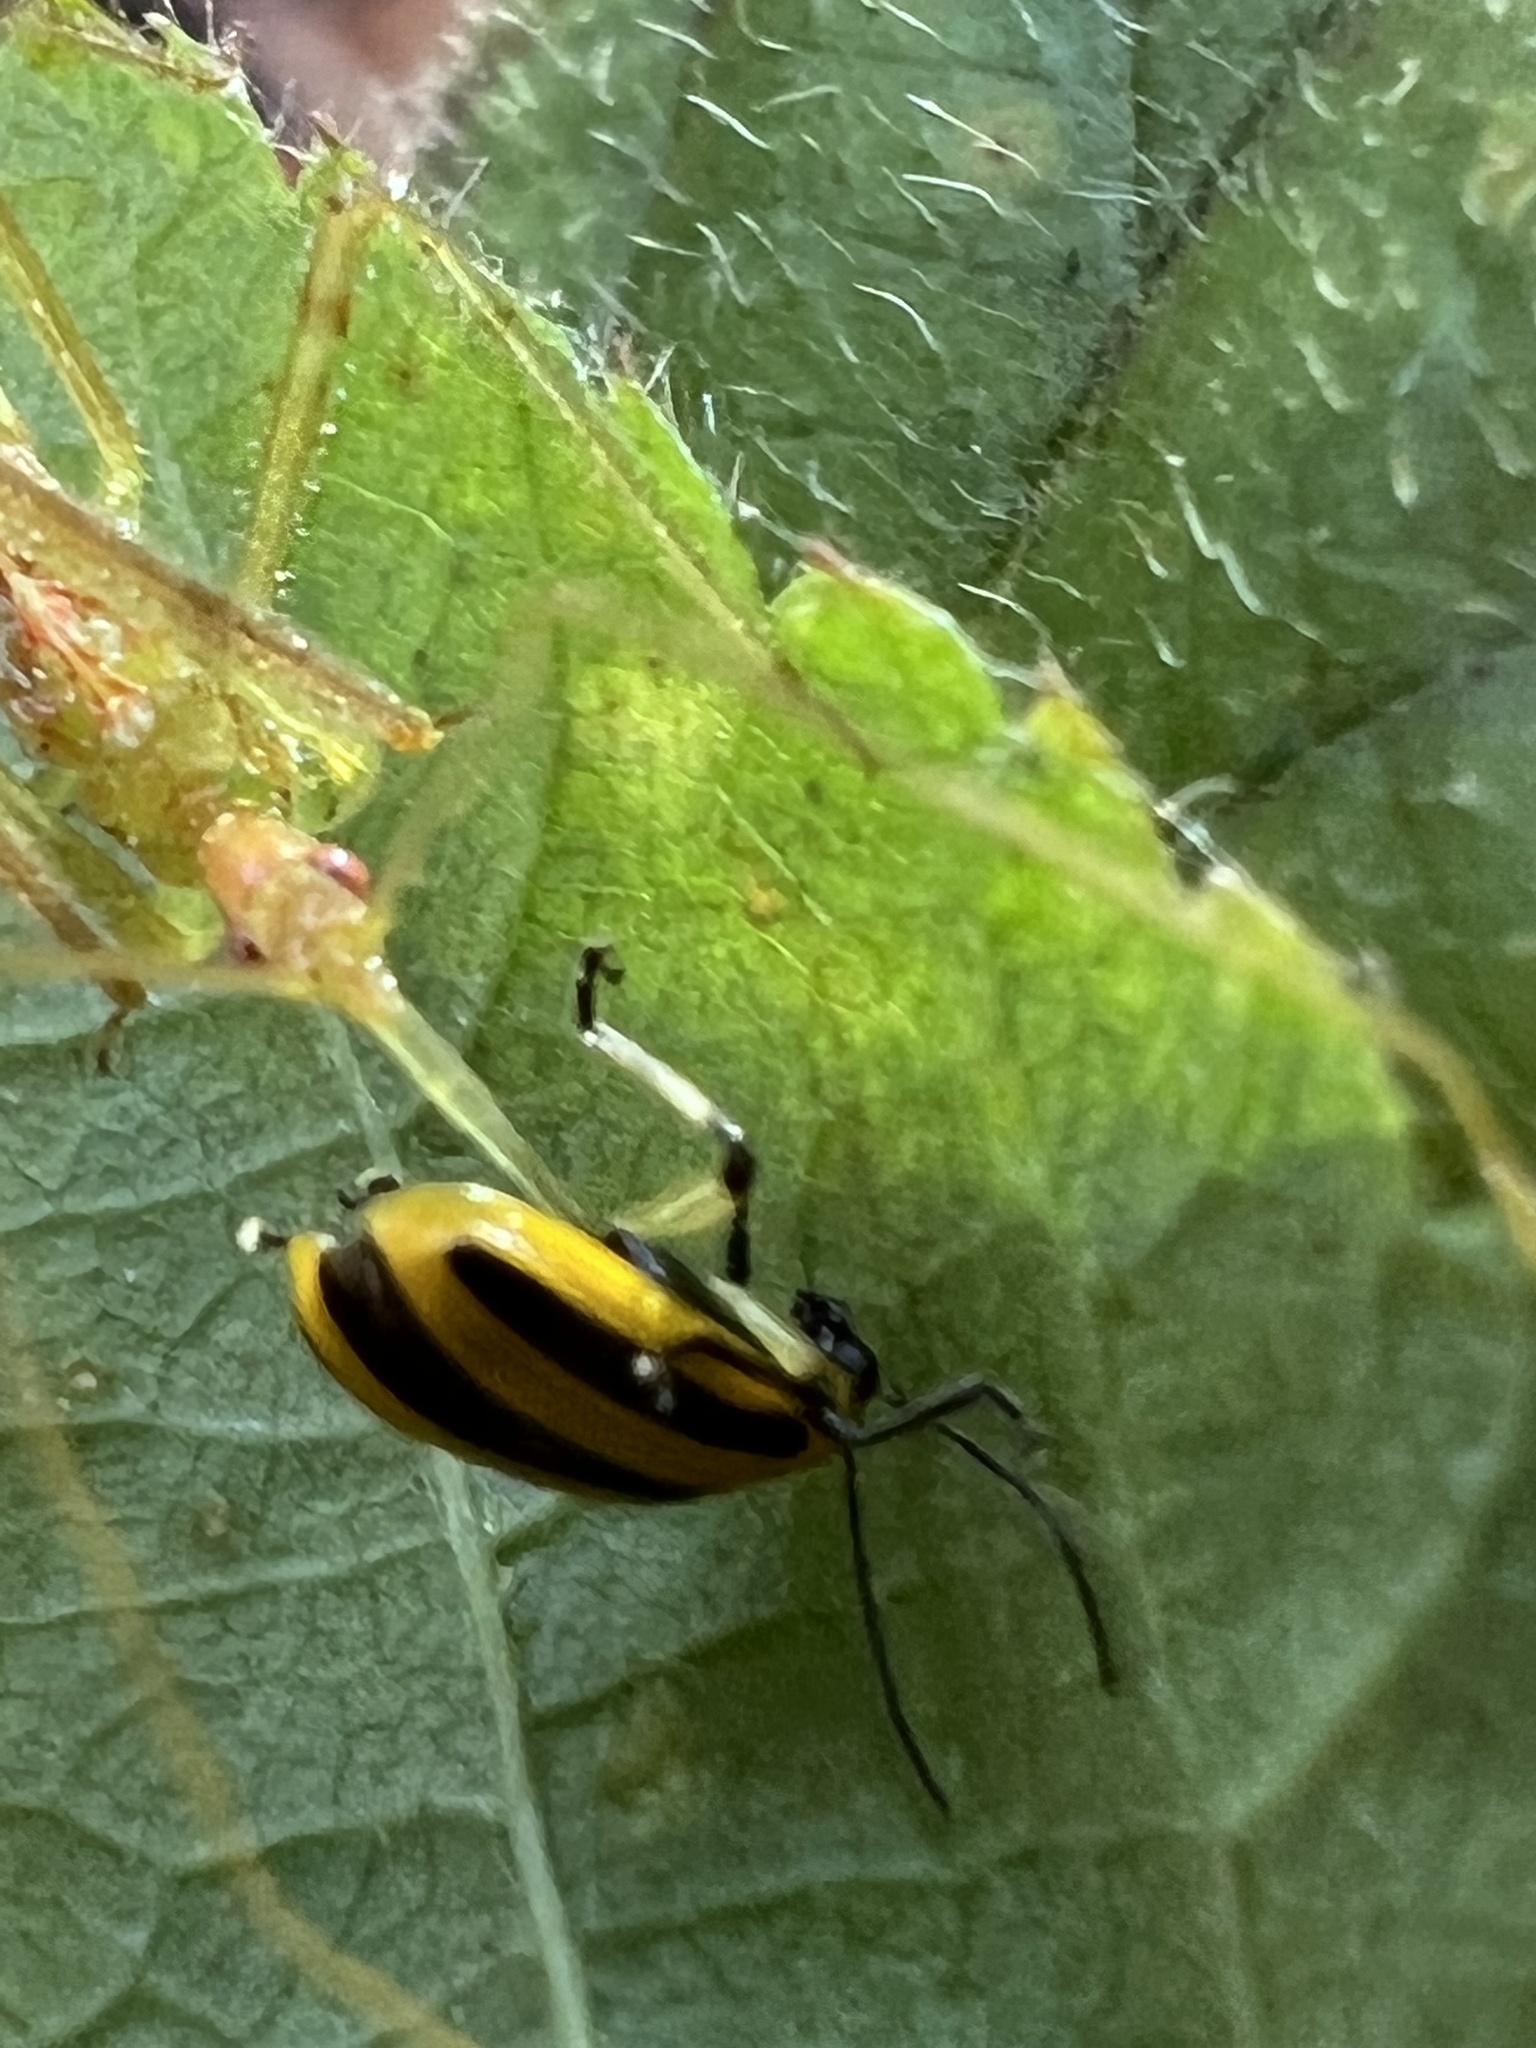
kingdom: Animalia
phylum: Arthropoda
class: Insecta
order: Coleoptera
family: Chrysomelidae
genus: Acalymma
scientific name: Acalymma vittatum
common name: Striped cucumber beetle
